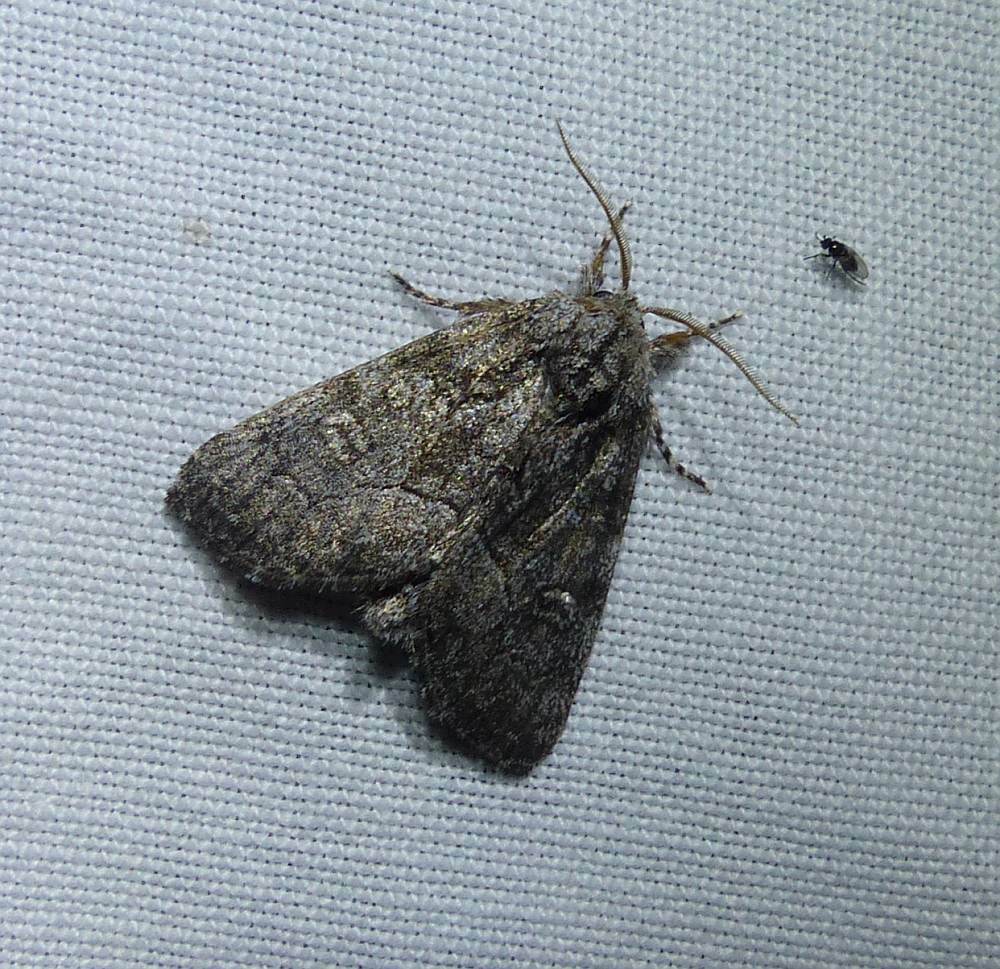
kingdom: Animalia
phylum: Arthropoda
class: Insecta
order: Lepidoptera
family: Noctuidae
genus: Raphia
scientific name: Raphia frater
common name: Brother
